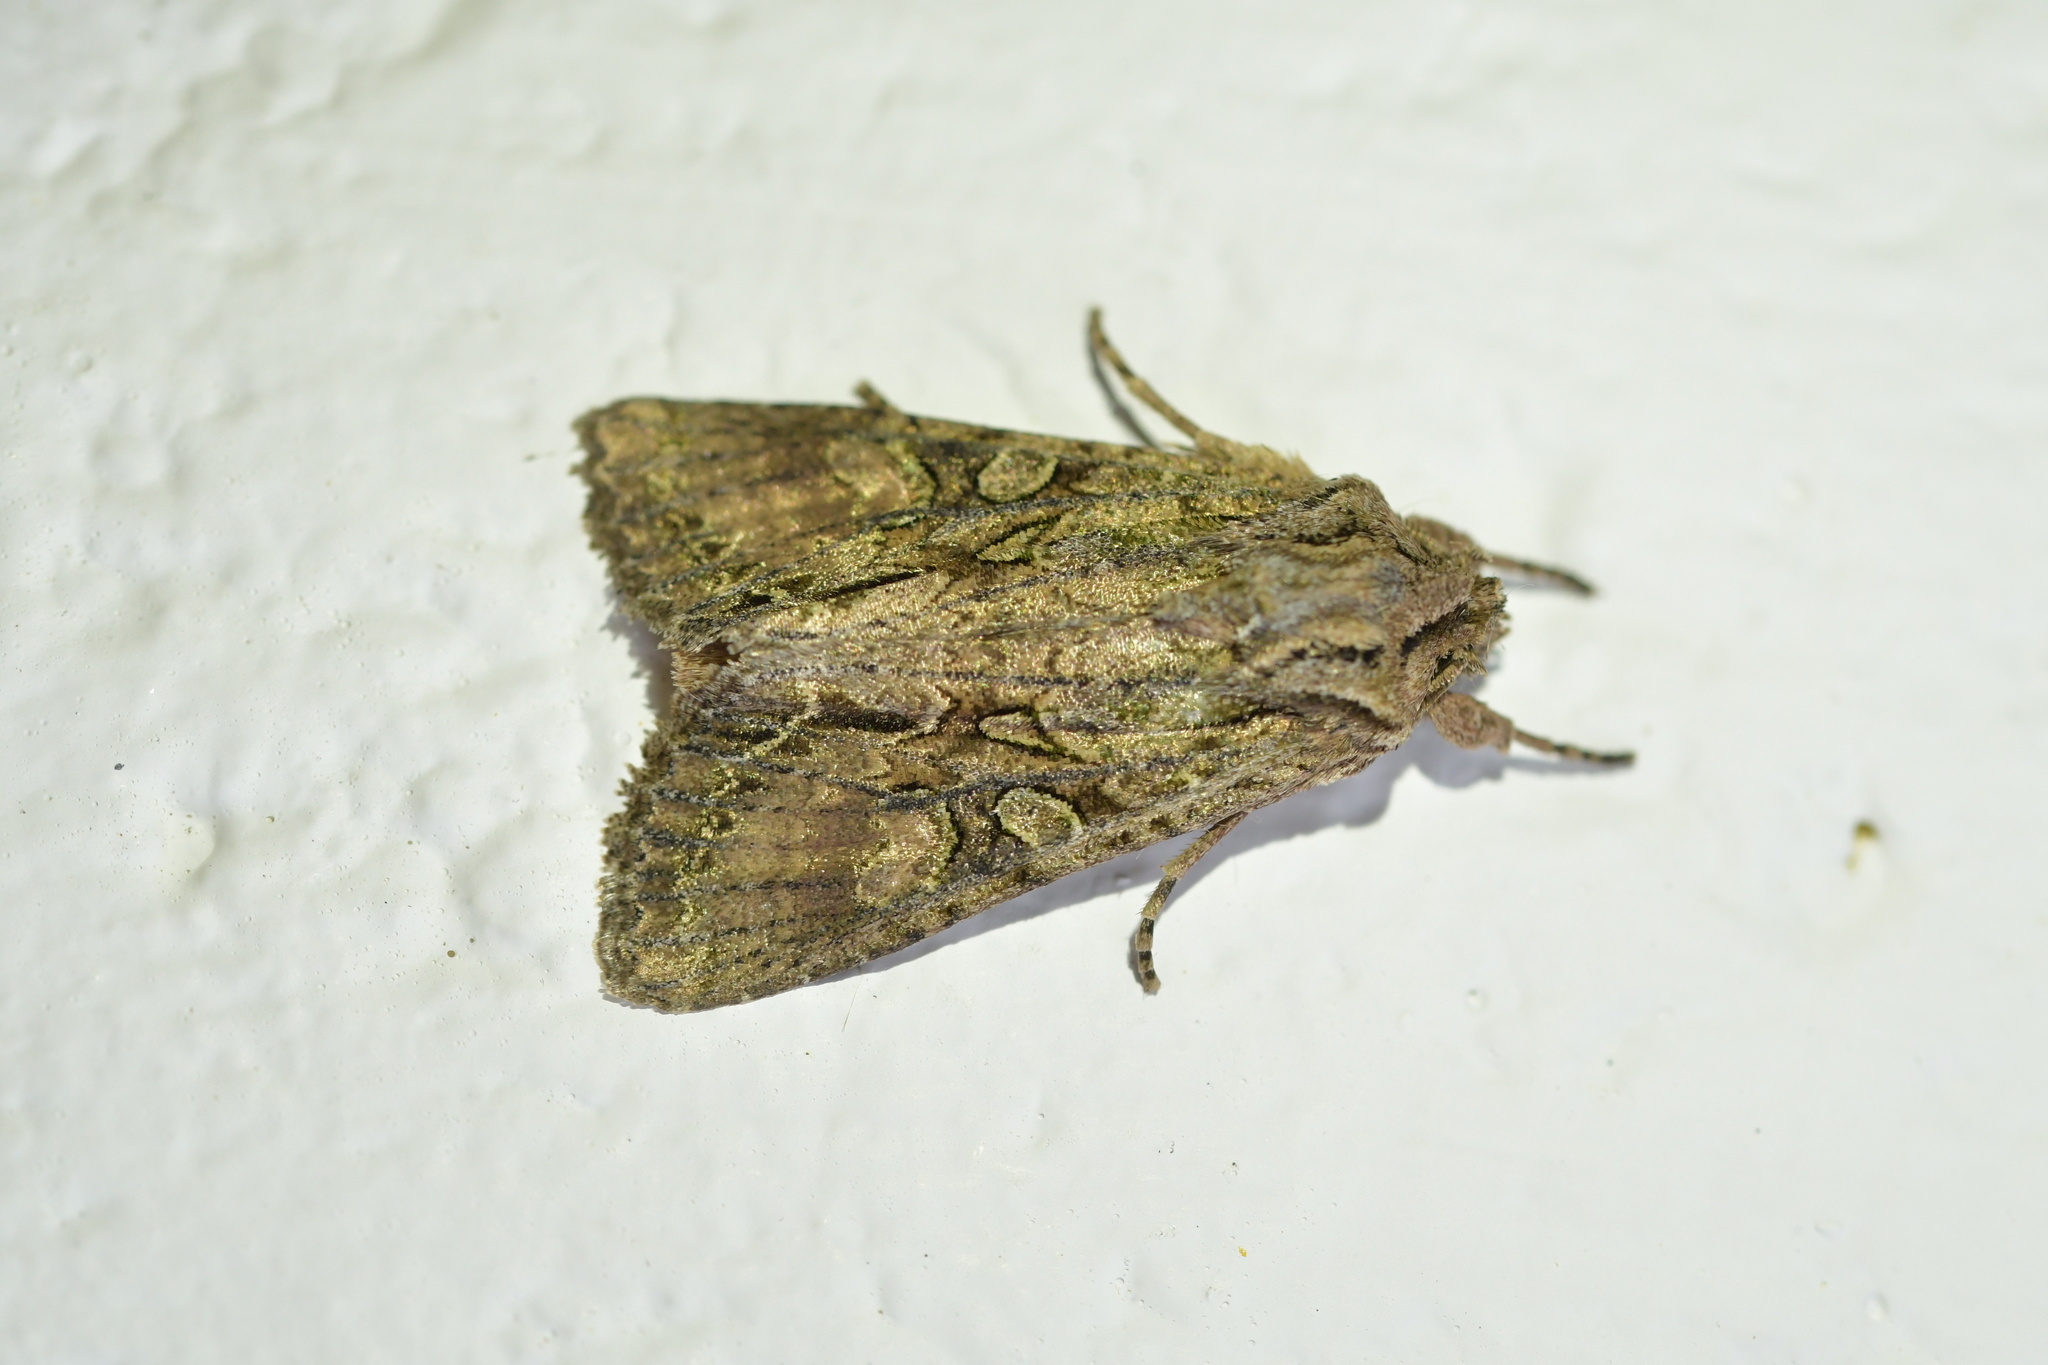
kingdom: Animalia
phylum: Arthropoda
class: Insecta
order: Lepidoptera
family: Noctuidae
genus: Ichneutica
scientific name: Ichneutica mutans
